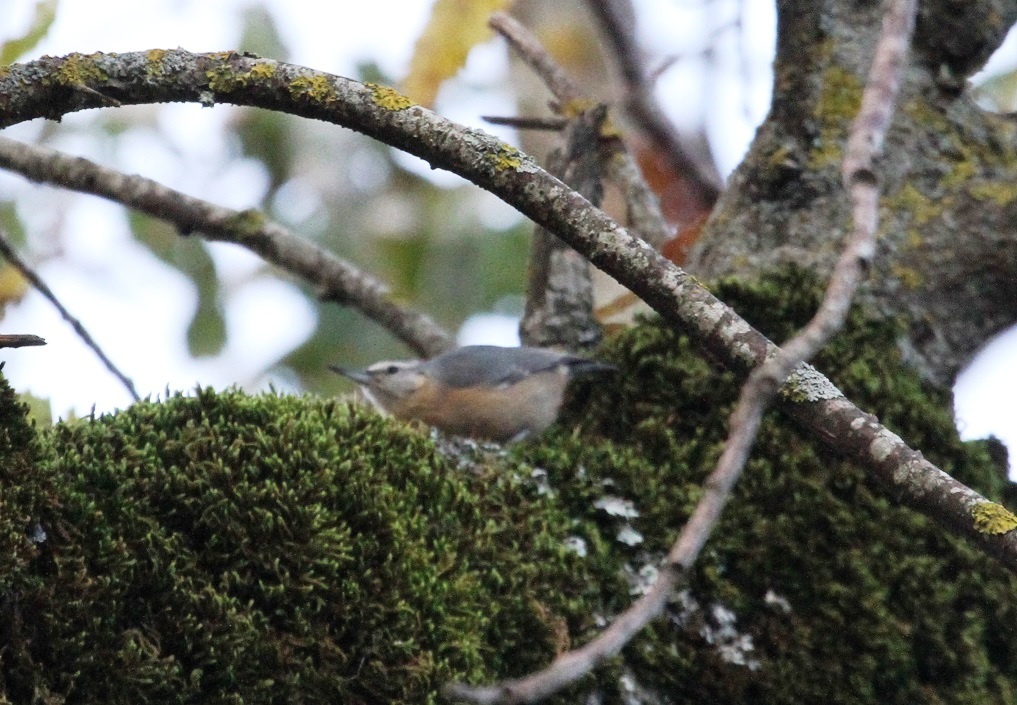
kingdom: Animalia
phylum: Chordata
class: Aves
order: Passeriformes
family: Sittidae
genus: Sitta
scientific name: Sitta ledanti
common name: Algerian nuthatch
